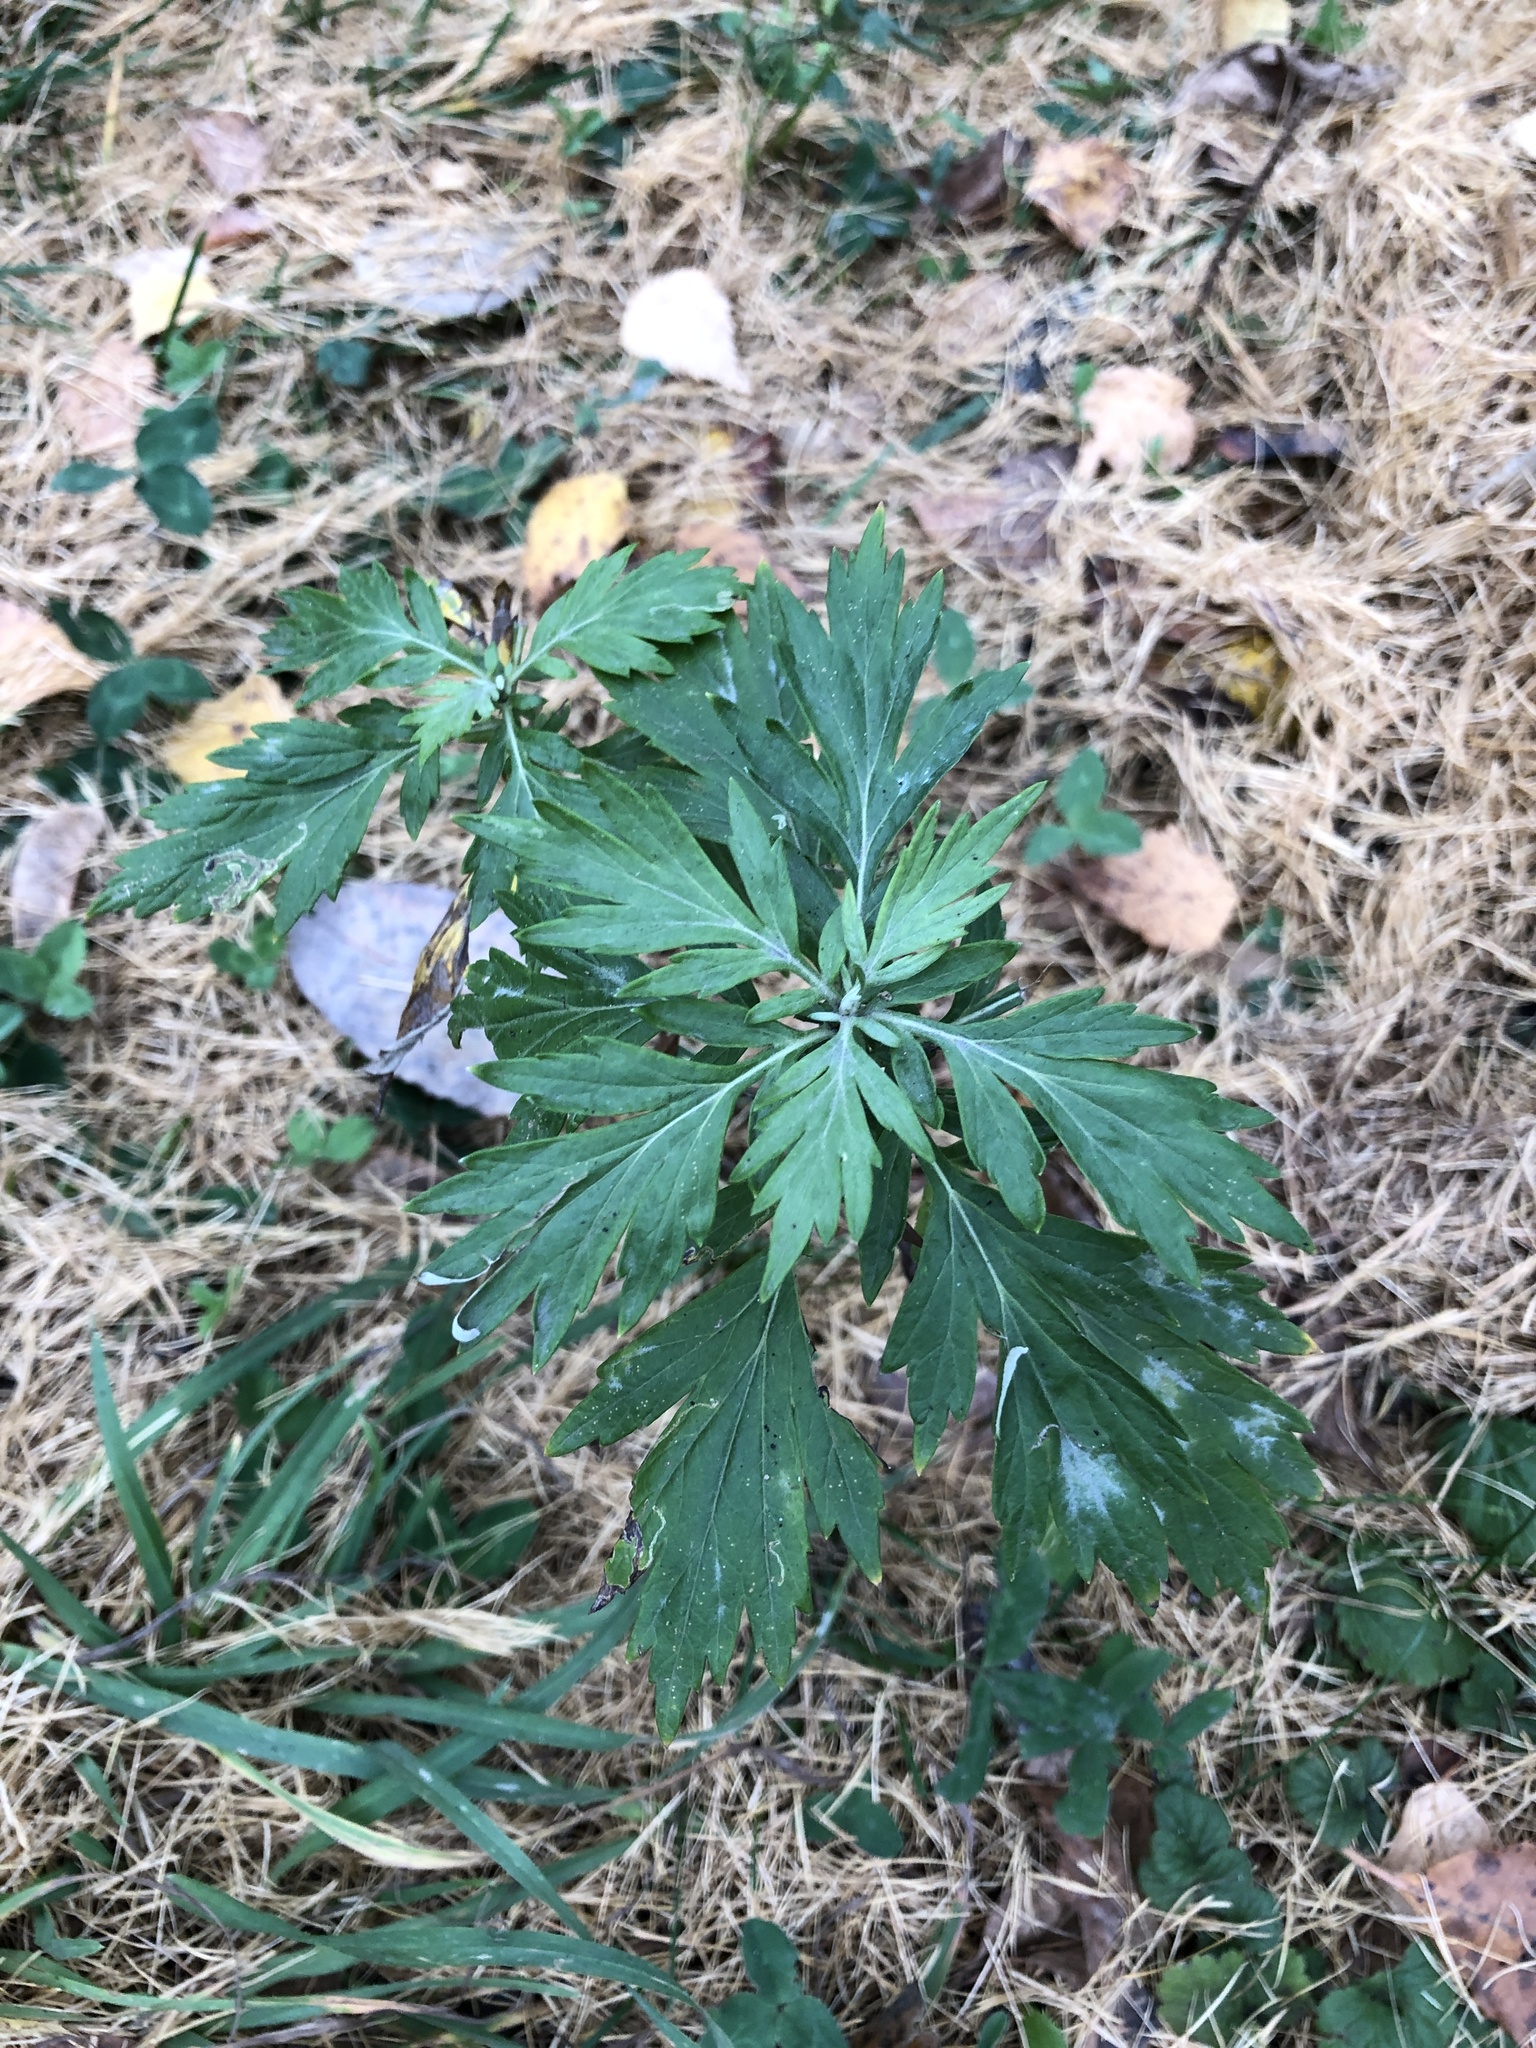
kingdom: Plantae
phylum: Tracheophyta
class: Magnoliopsida
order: Asterales
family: Asteraceae
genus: Artemisia
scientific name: Artemisia vulgaris
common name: Mugwort
